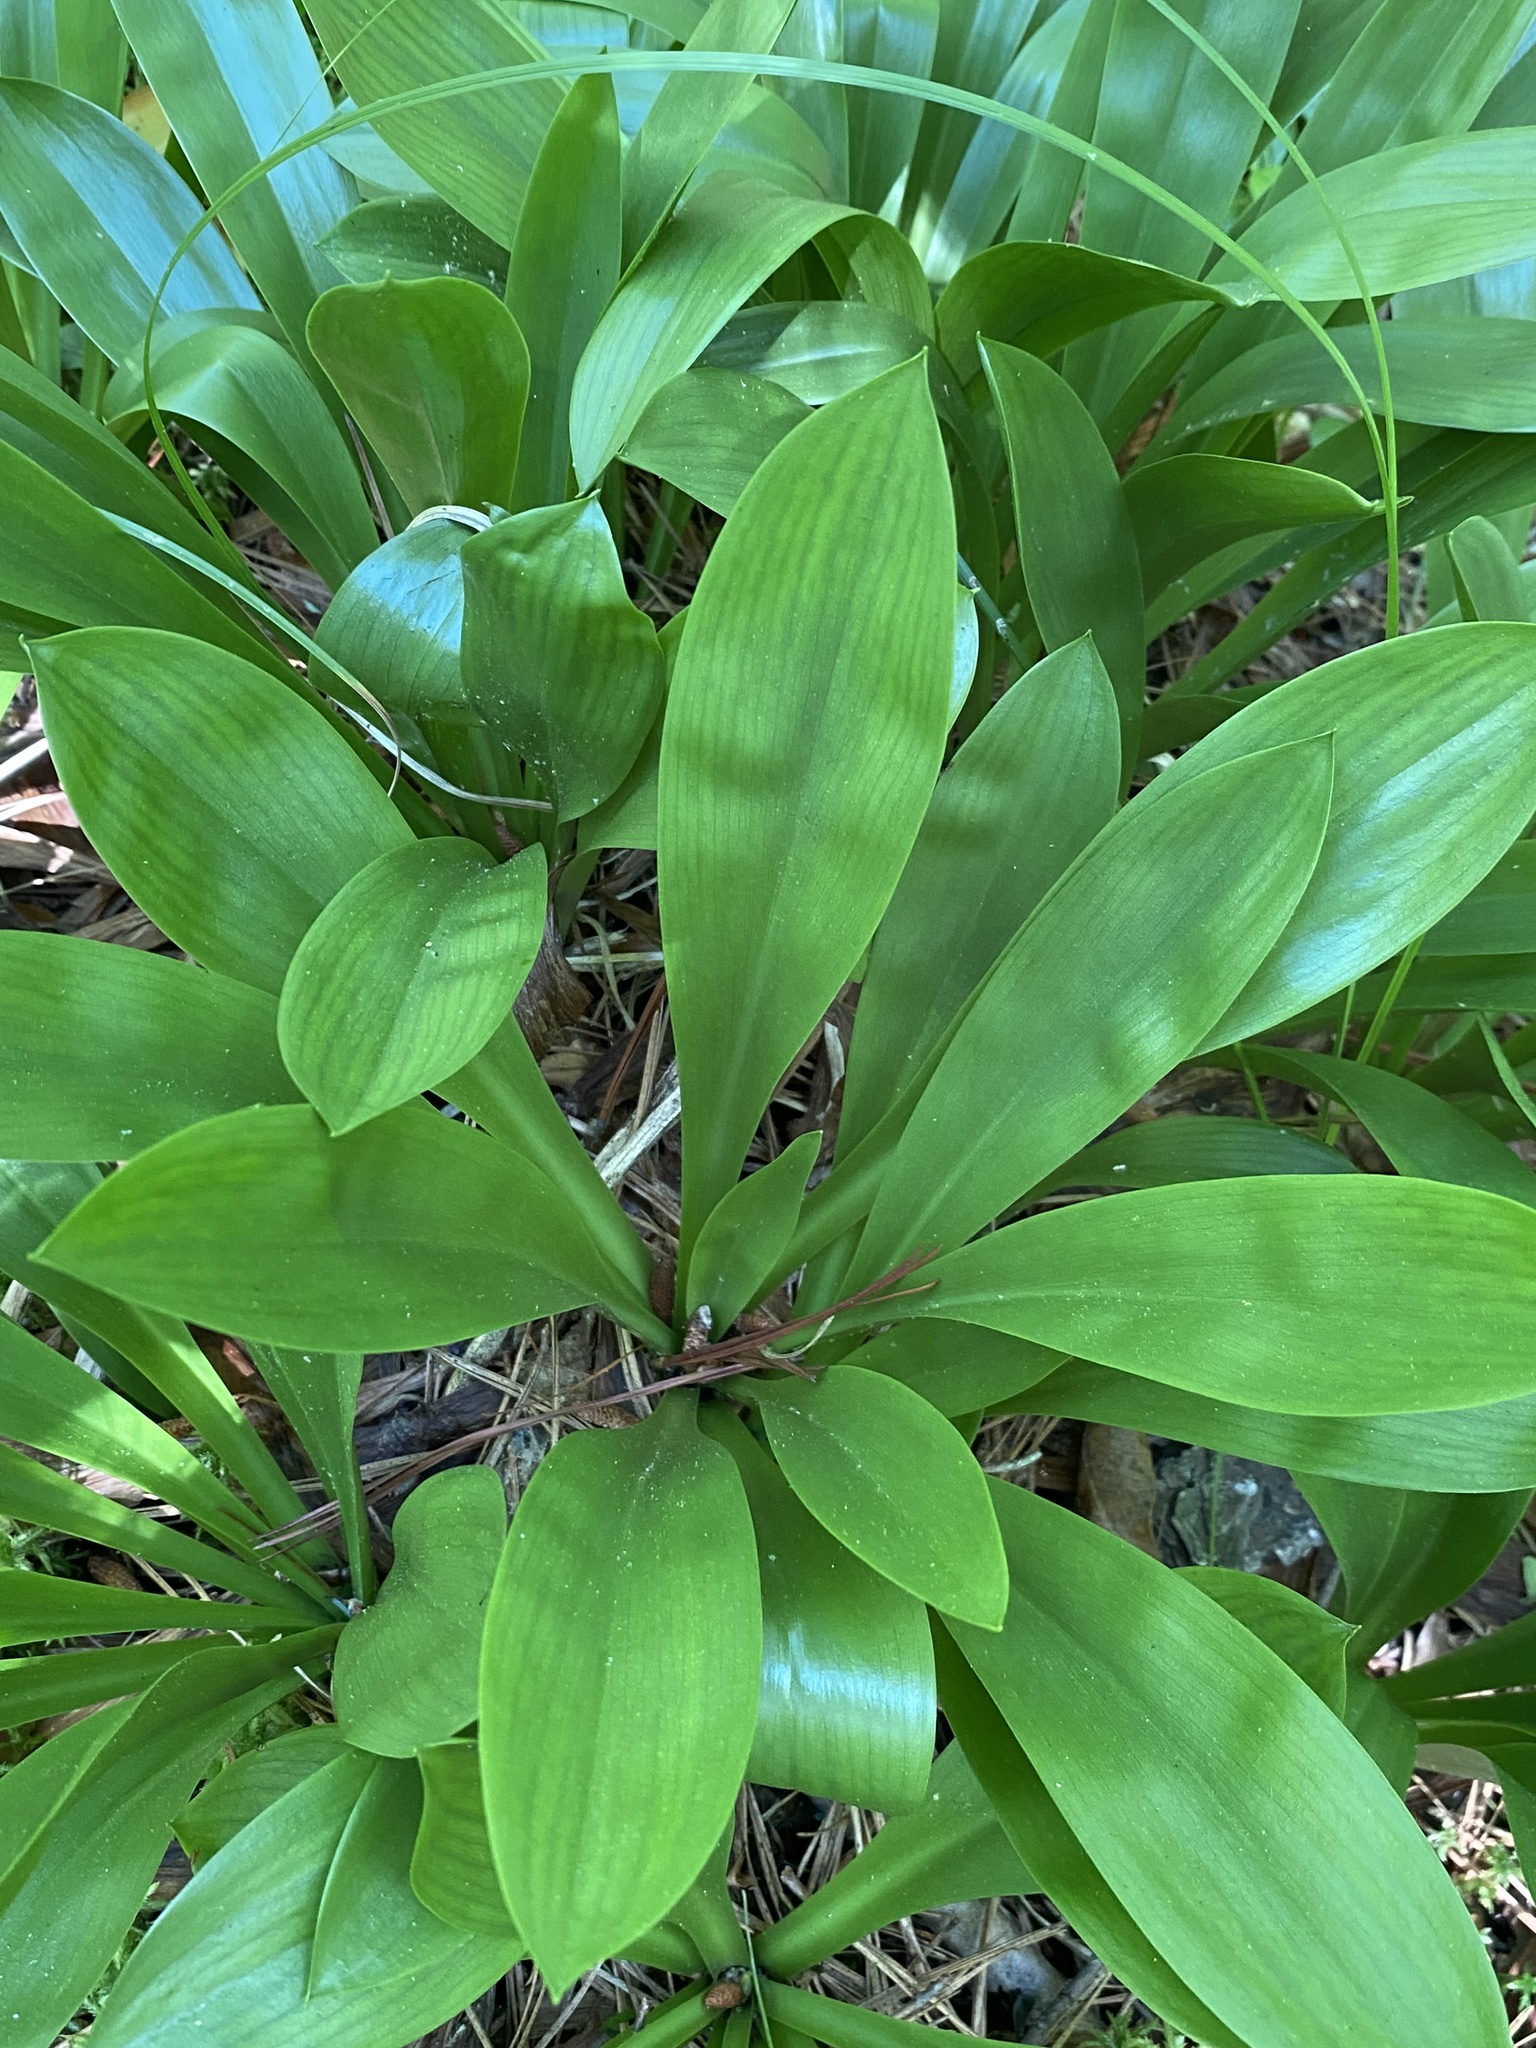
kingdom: Plantae
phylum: Tracheophyta
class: Liliopsida
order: Liliales
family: Melanthiaceae
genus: Helonias
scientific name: Helonias bullata
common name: Swamp-pink
